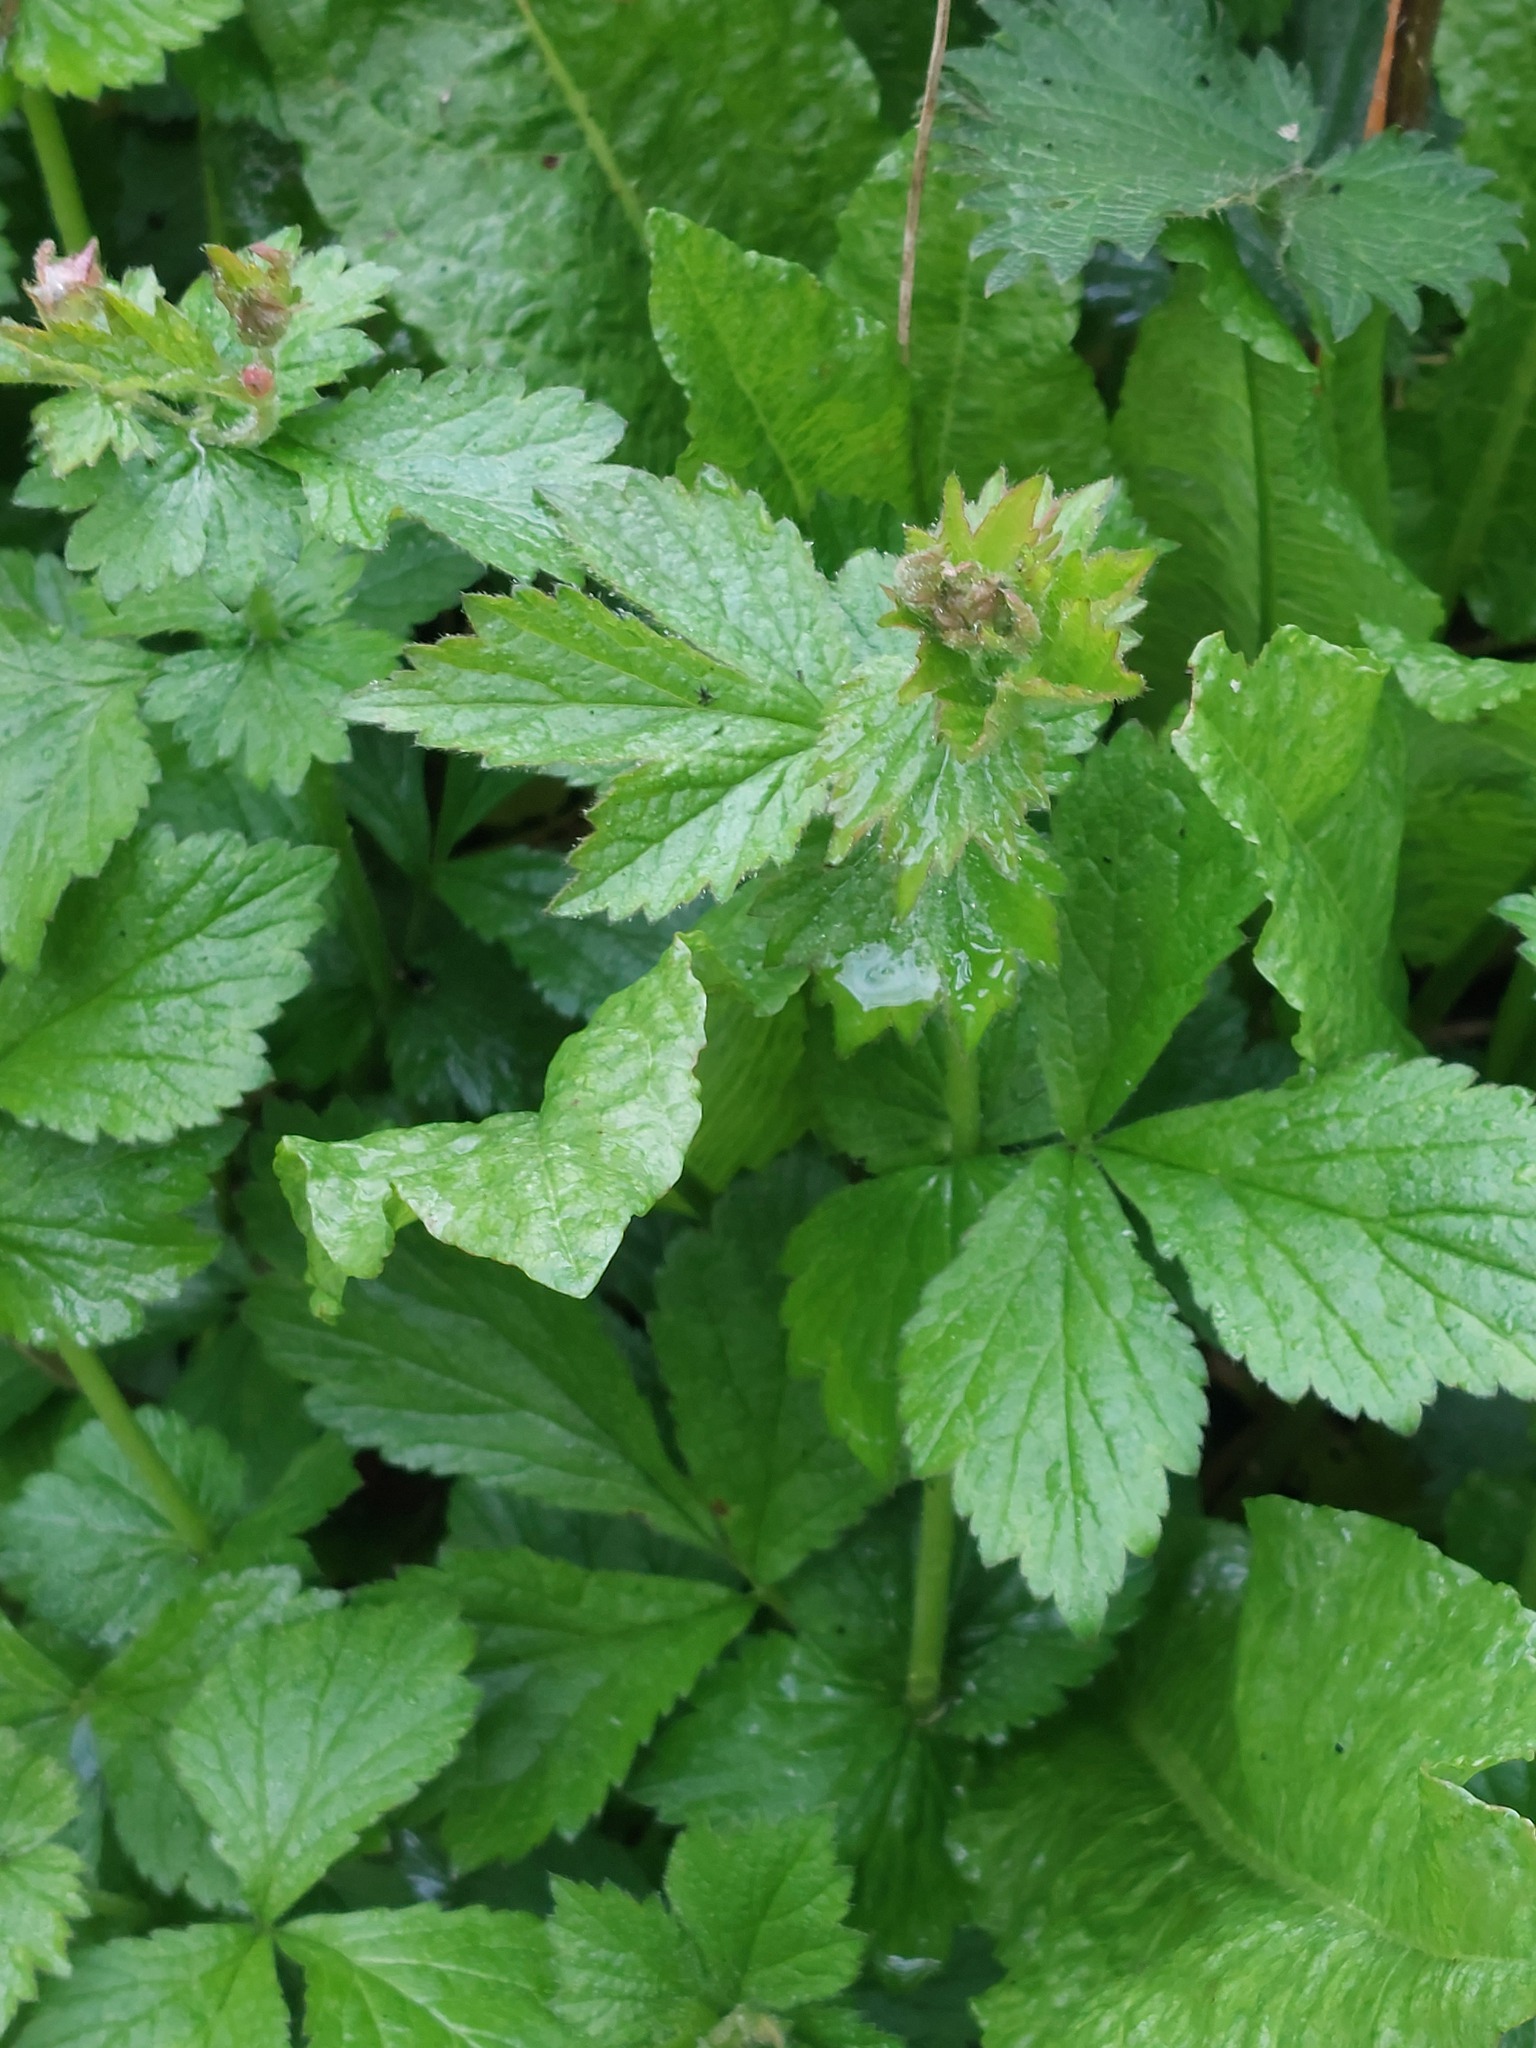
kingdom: Plantae
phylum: Tracheophyta
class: Magnoliopsida
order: Rosales
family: Rosaceae
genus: Geum
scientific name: Geum urbanum
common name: Wood avens
